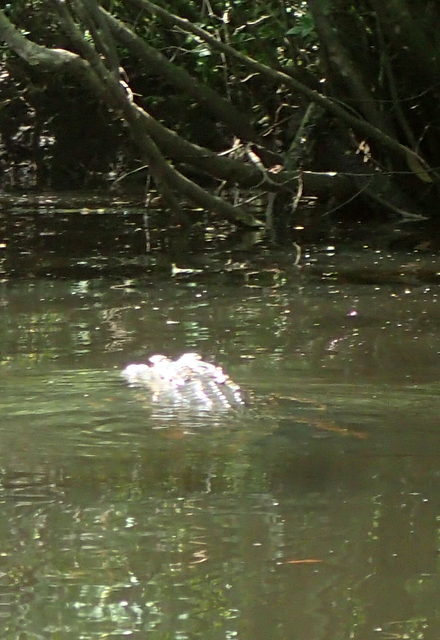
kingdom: Animalia
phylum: Chordata
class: Crocodylia
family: Alligatoridae
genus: Alligator
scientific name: Alligator mississippiensis
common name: American alligator
